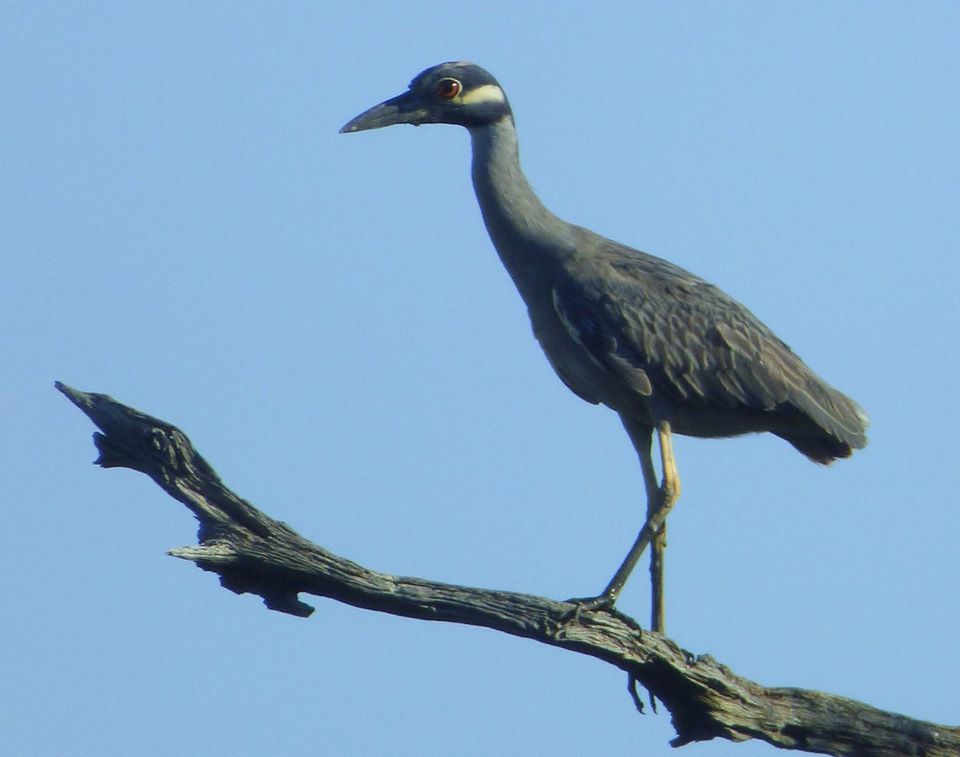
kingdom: Animalia
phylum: Chordata
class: Aves
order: Pelecaniformes
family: Ardeidae
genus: Nyctanassa
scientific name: Nyctanassa violacea
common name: Yellow-crowned night heron
